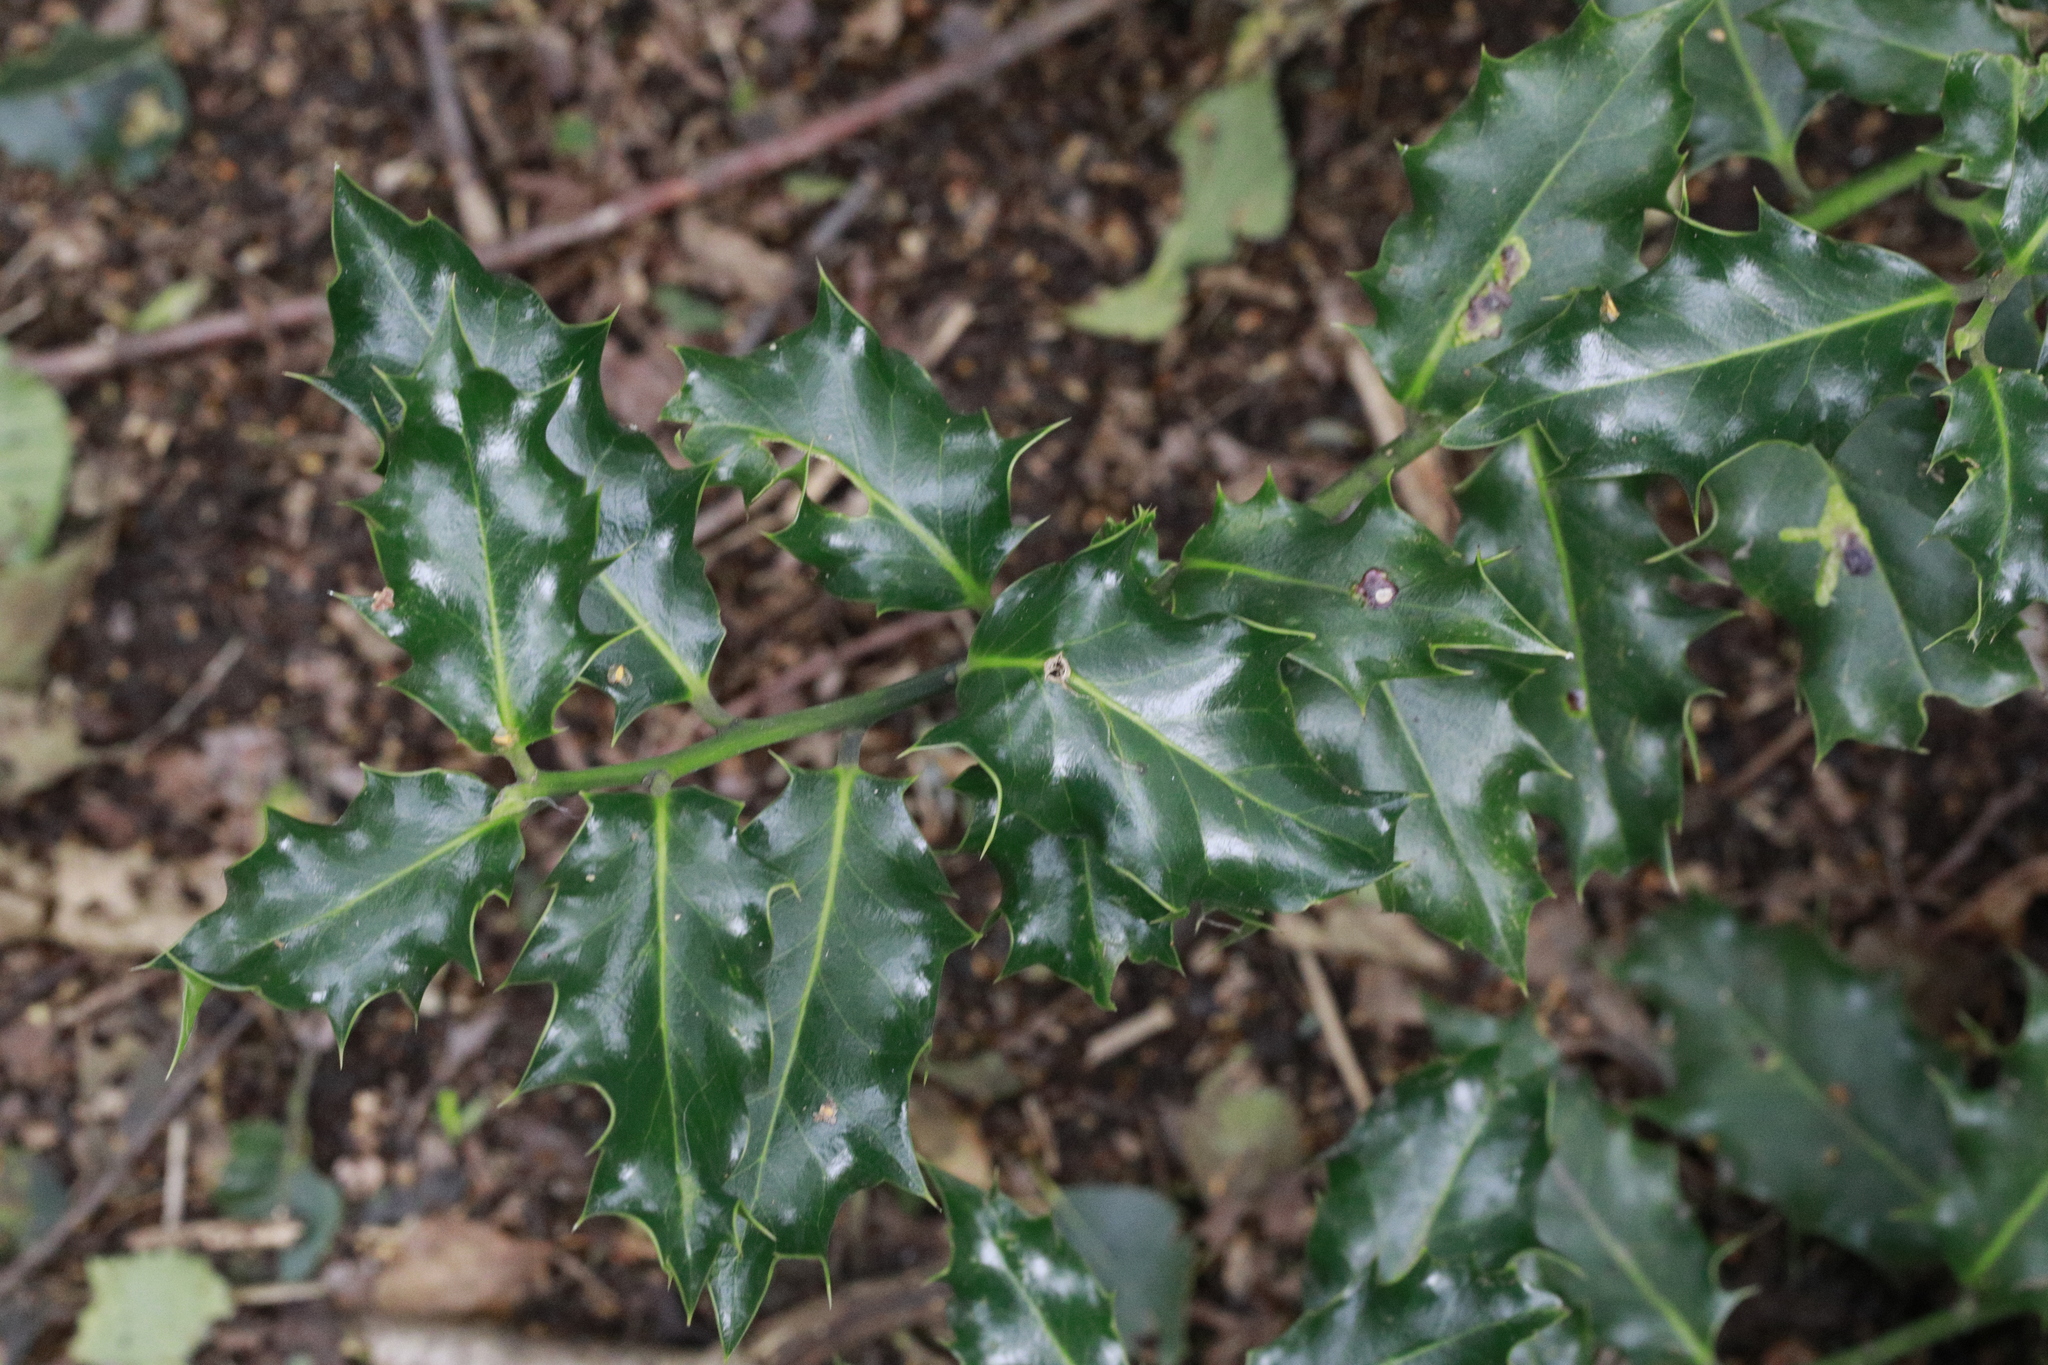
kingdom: Plantae
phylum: Tracheophyta
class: Magnoliopsida
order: Aquifoliales
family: Aquifoliaceae
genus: Ilex
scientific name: Ilex aquifolium
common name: English holly
